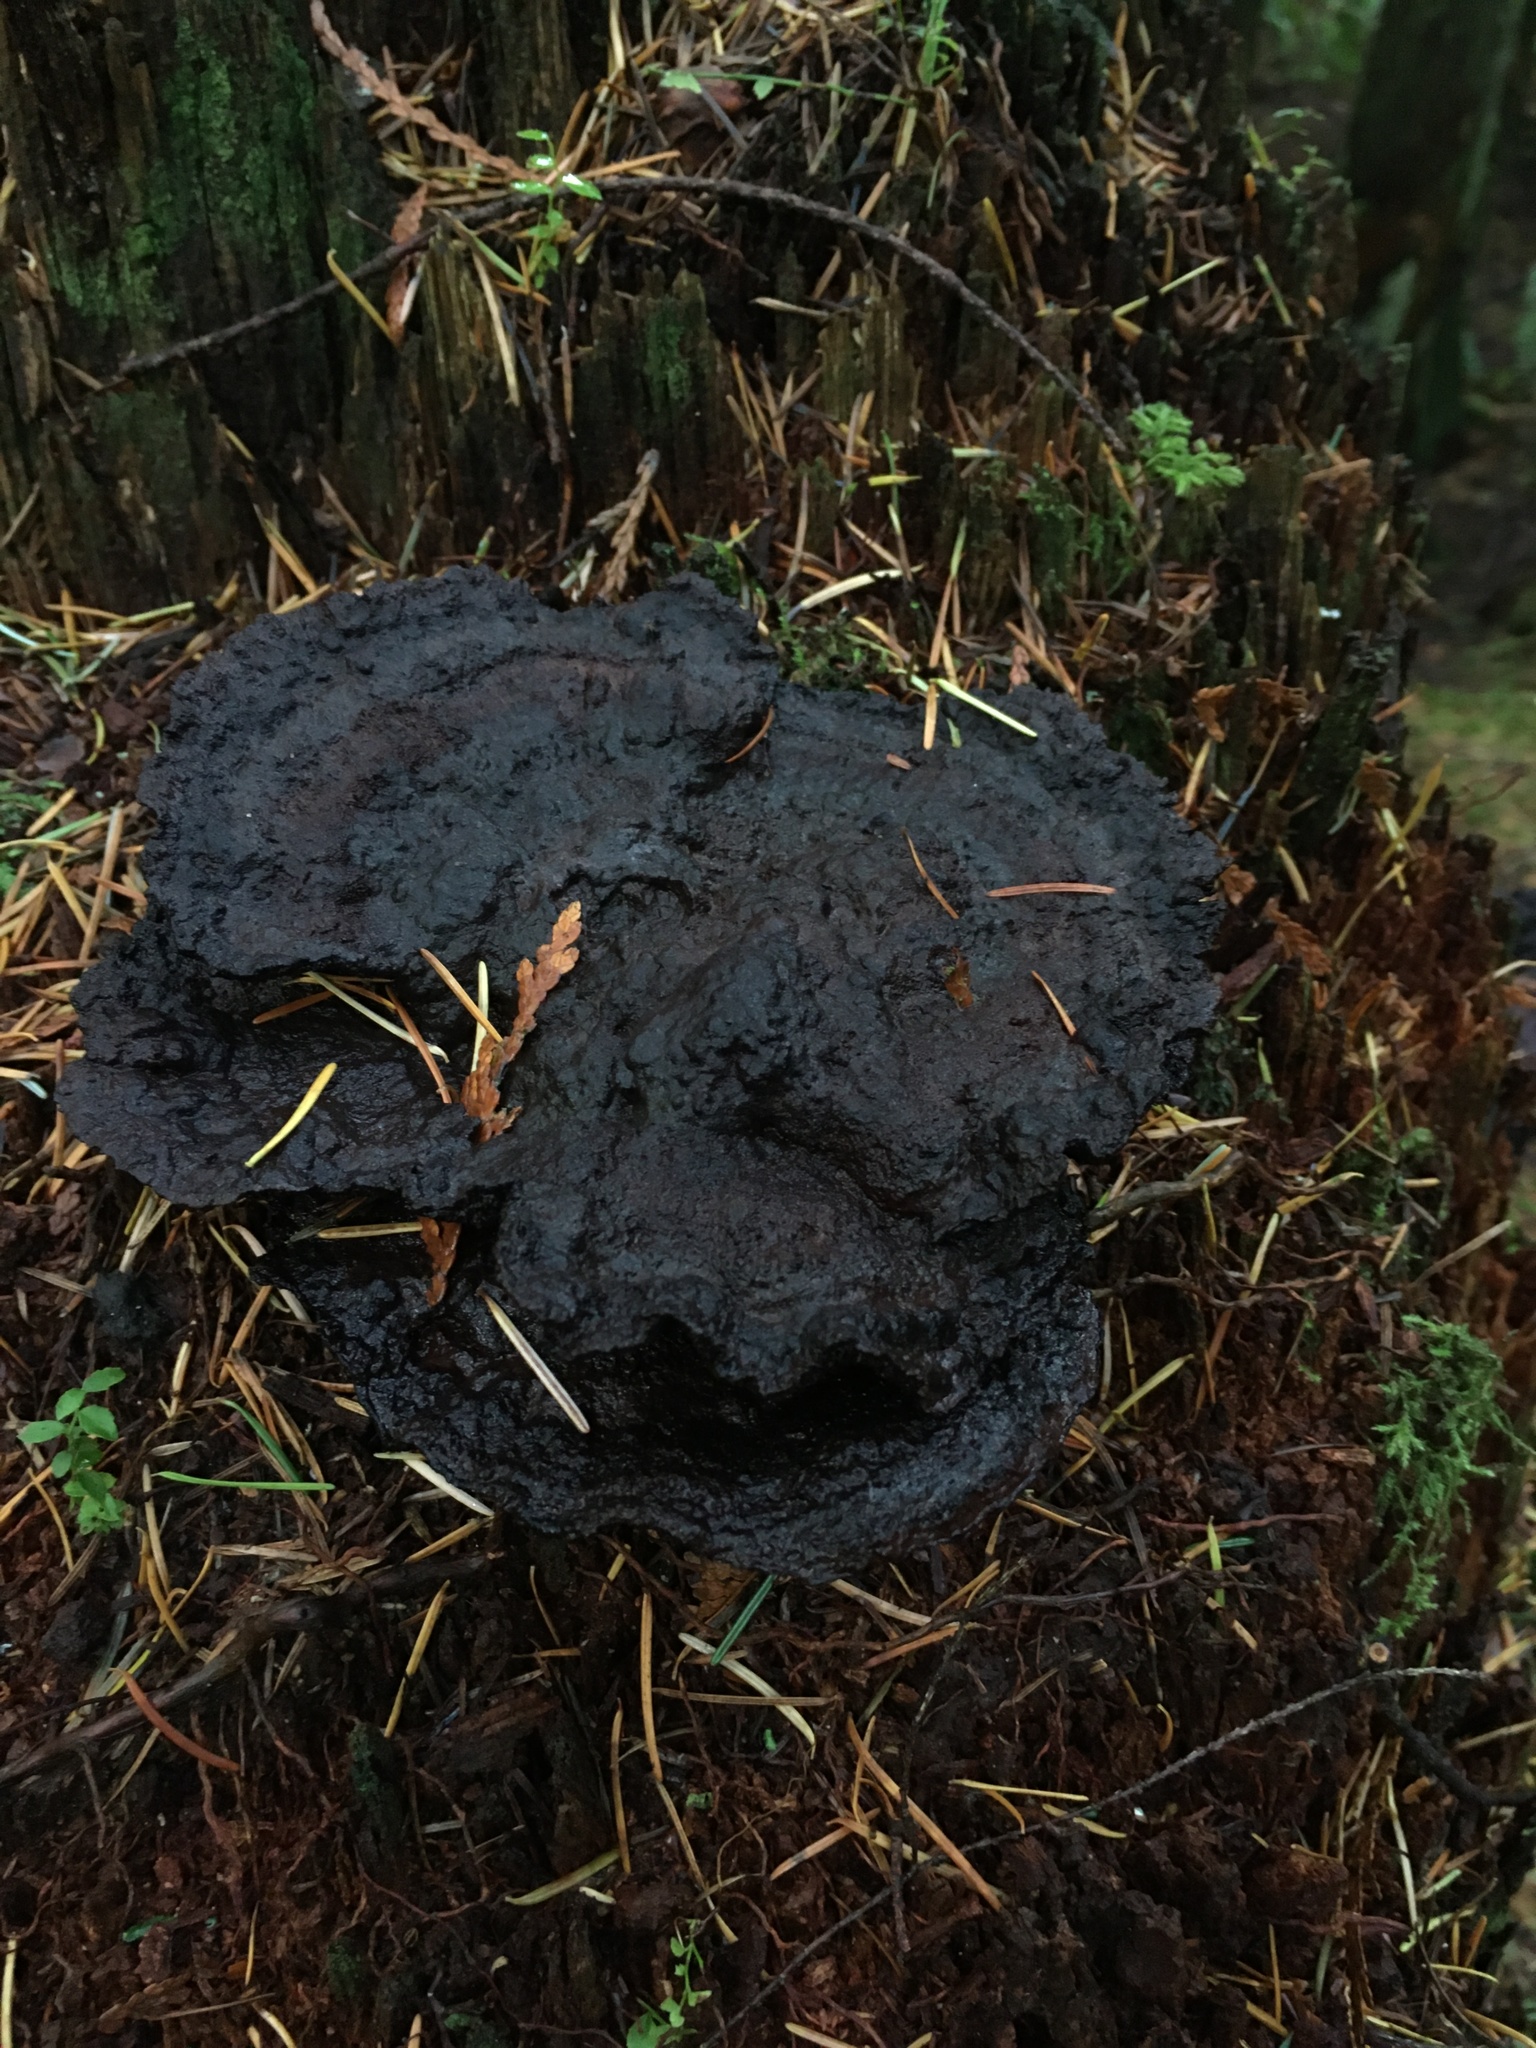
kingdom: Fungi
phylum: Basidiomycota
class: Agaricomycetes
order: Polyporales
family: Laetiporaceae
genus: Phaeolus
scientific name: Phaeolus schweinitzii
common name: Dyer's mazegill
